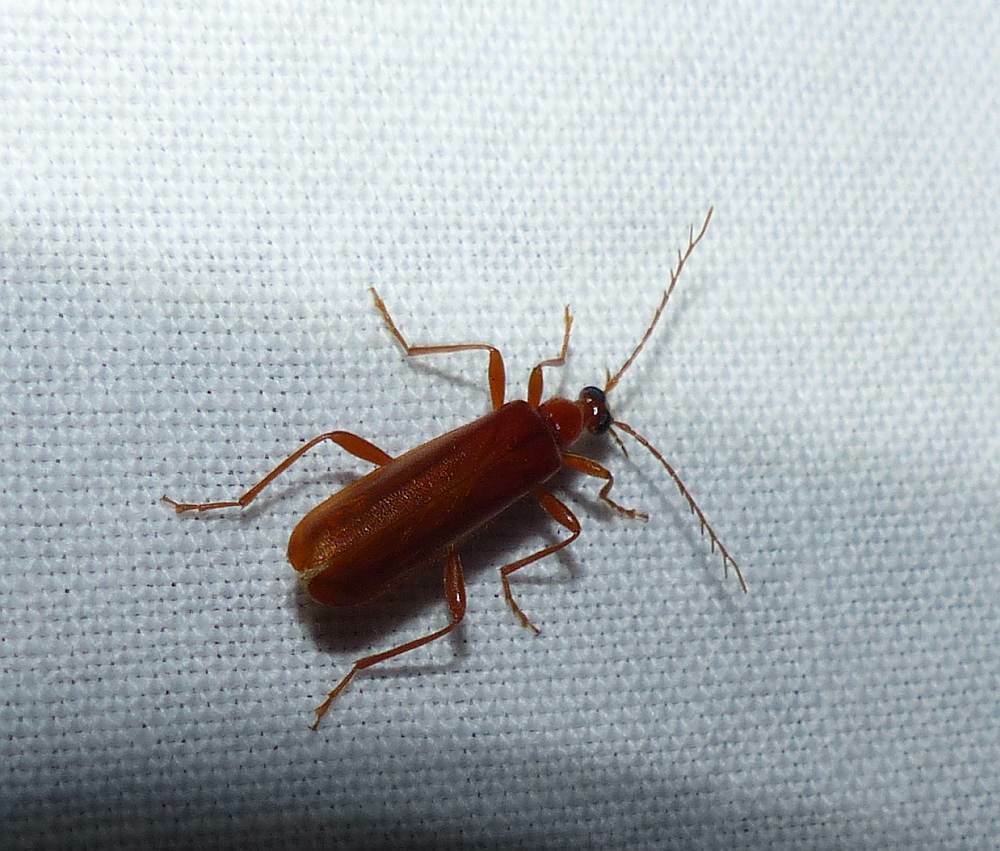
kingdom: Animalia
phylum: Arthropoda
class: Insecta
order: Coleoptera
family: Pyrochroidae
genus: Dendroides
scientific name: Dendroides concolor
